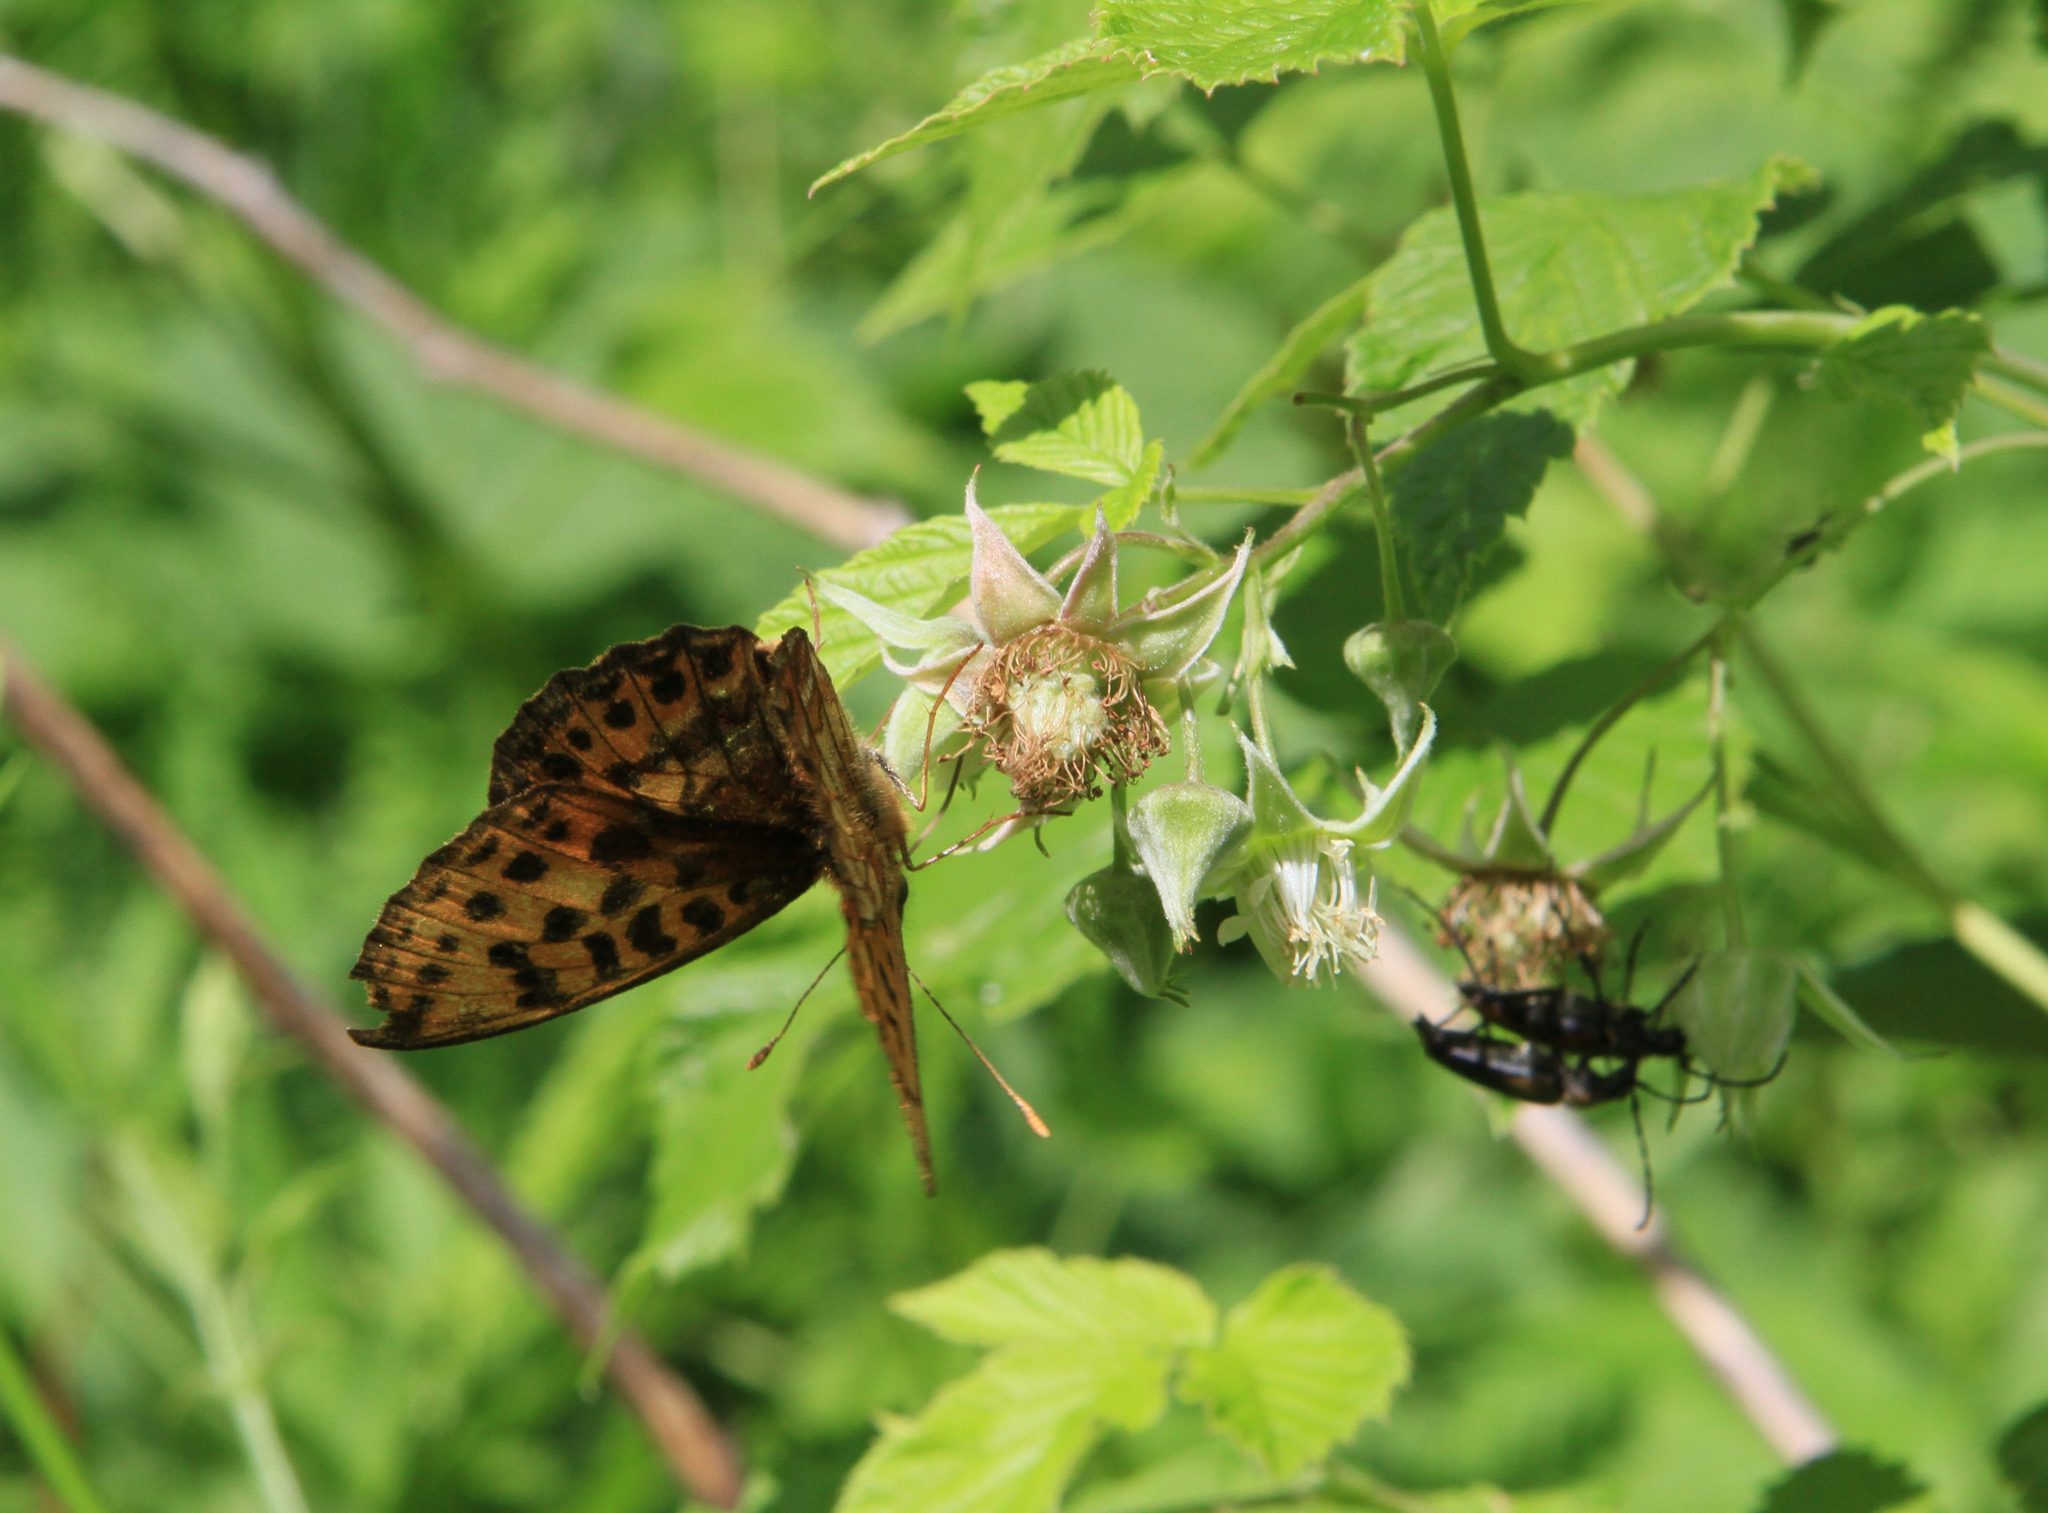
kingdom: Plantae
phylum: Tracheophyta
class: Magnoliopsida
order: Rosales
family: Rosaceae
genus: Rubus
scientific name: Rubus idaeus
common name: Raspberry
